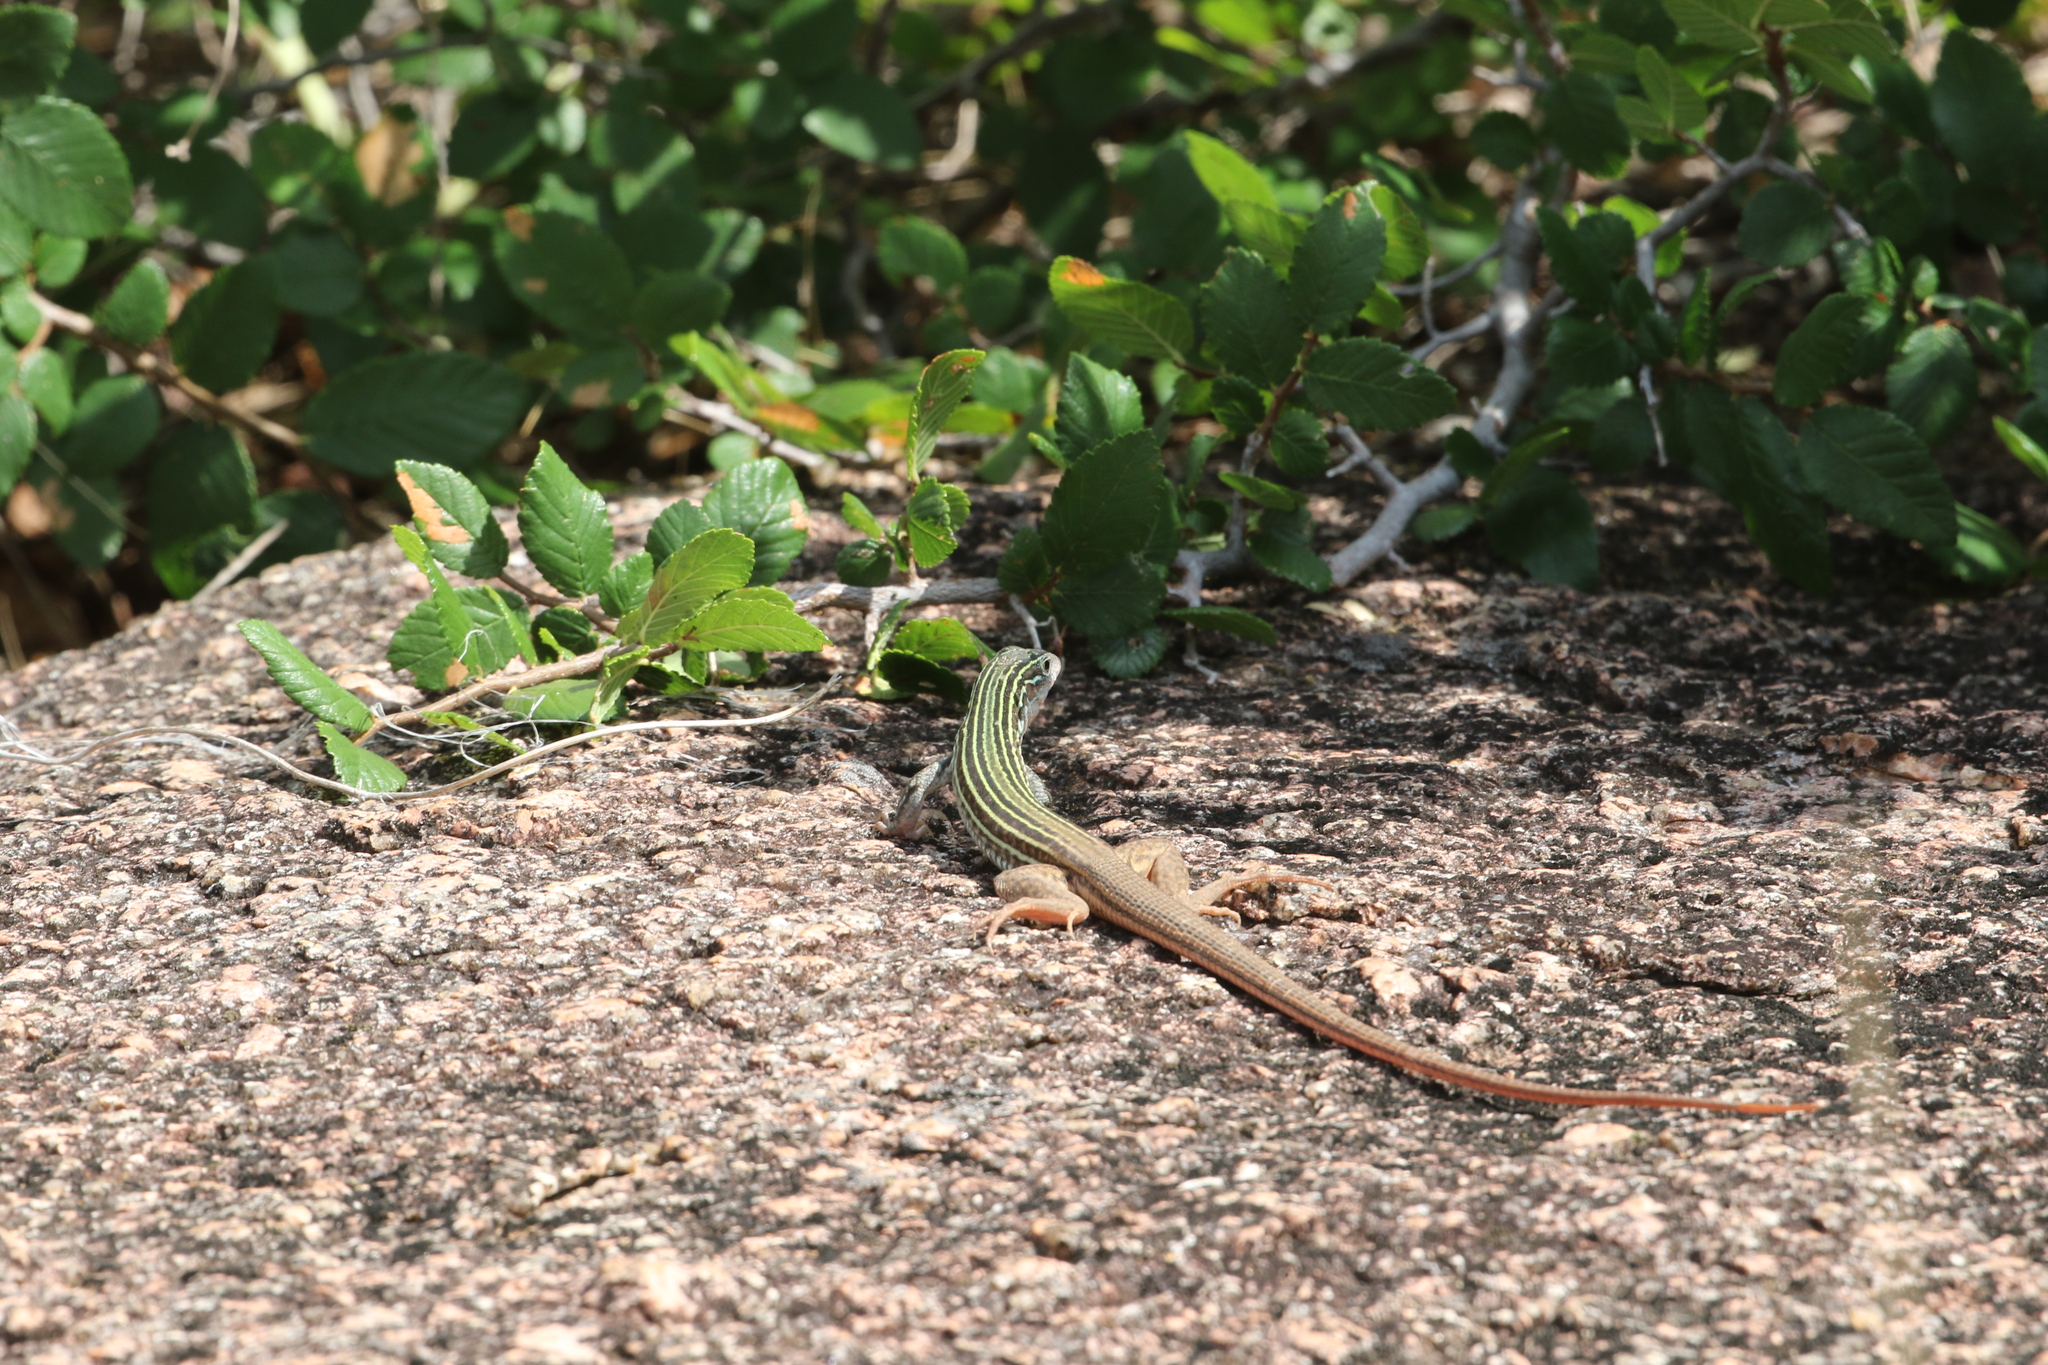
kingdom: Animalia
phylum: Chordata
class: Squamata
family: Teiidae
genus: Aspidoscelis
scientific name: Aspidoscelis gularis
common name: Eastern spotted whiptail
